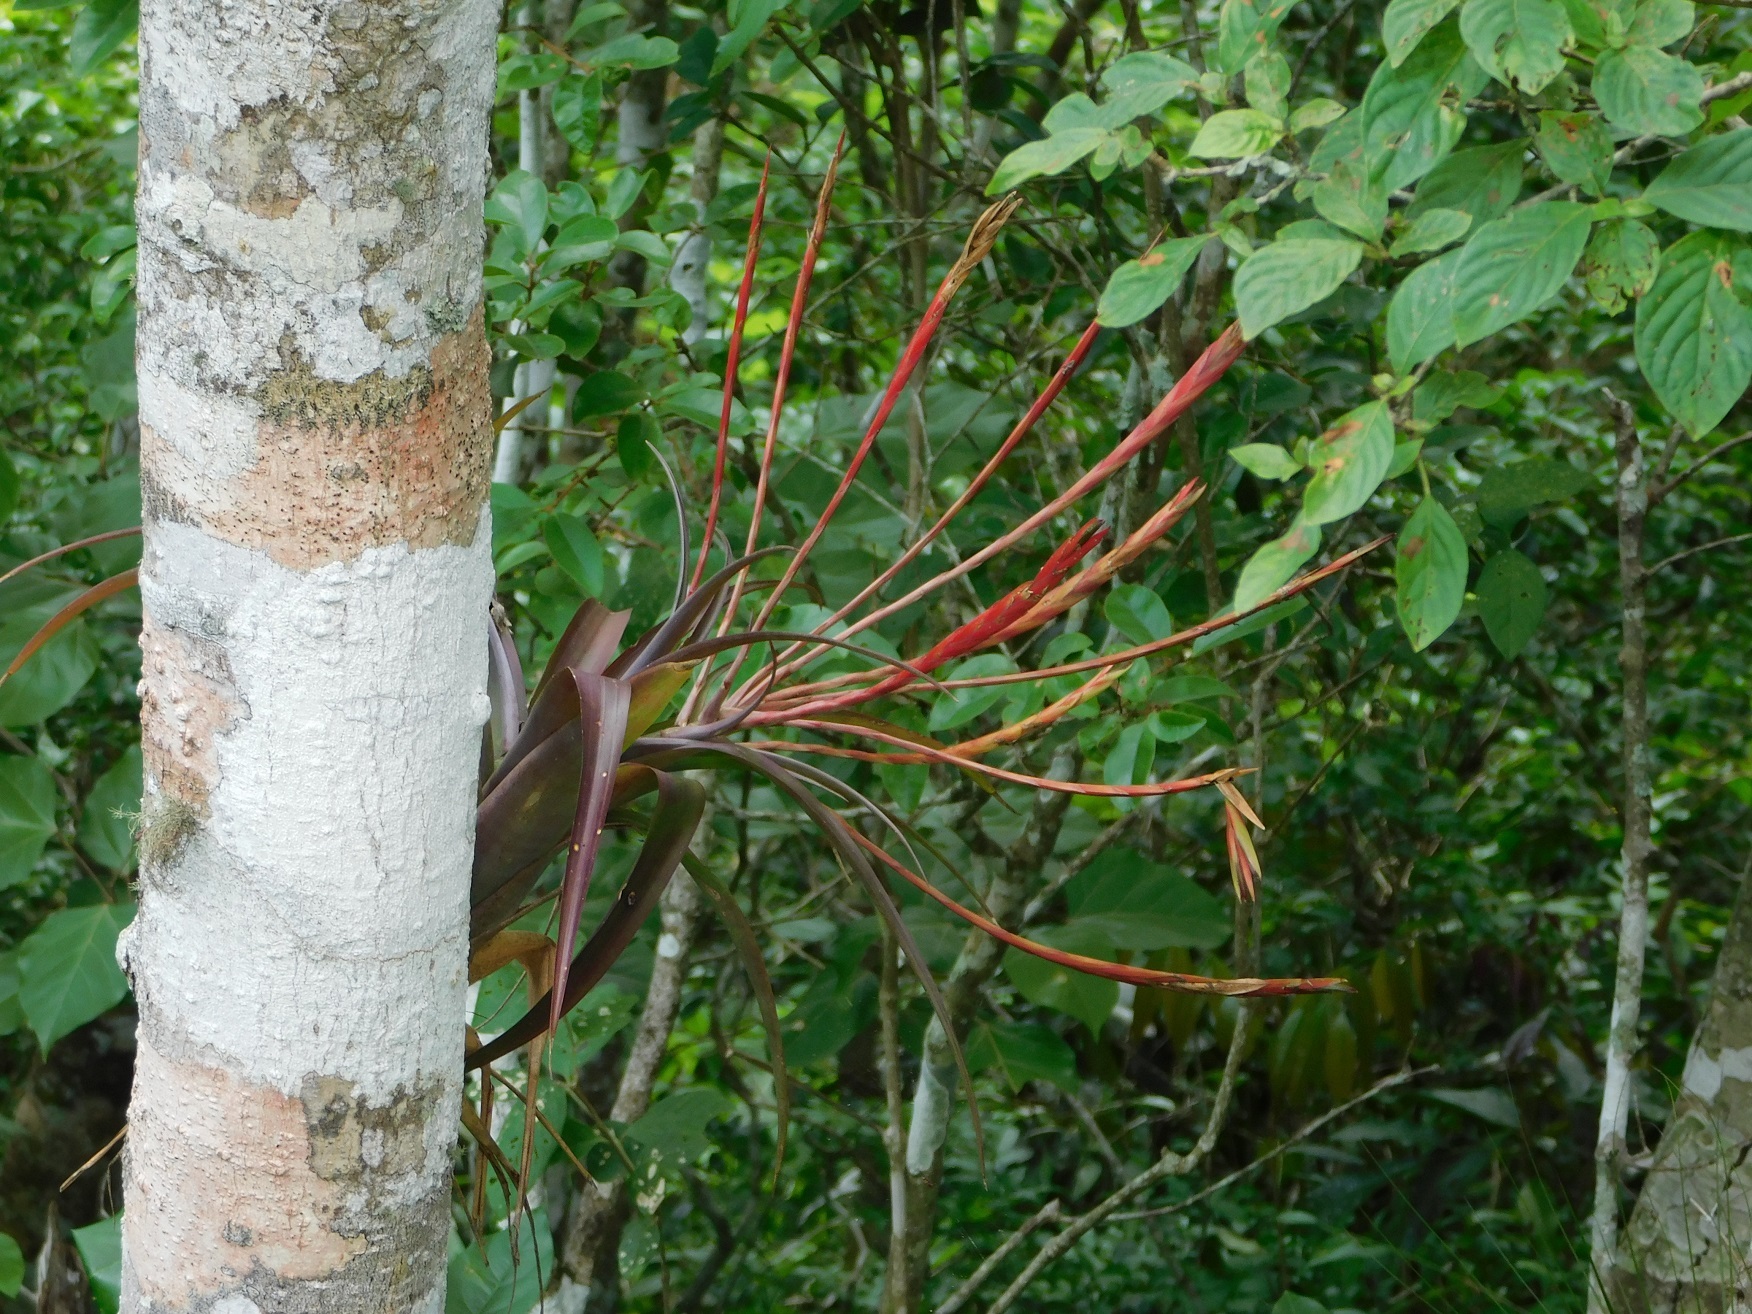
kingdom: Plantae
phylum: Tracheophyta
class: Liliopsida
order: Poales
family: Bromeliaceae
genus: Tillandsia
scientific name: Tillandsia flabellata
